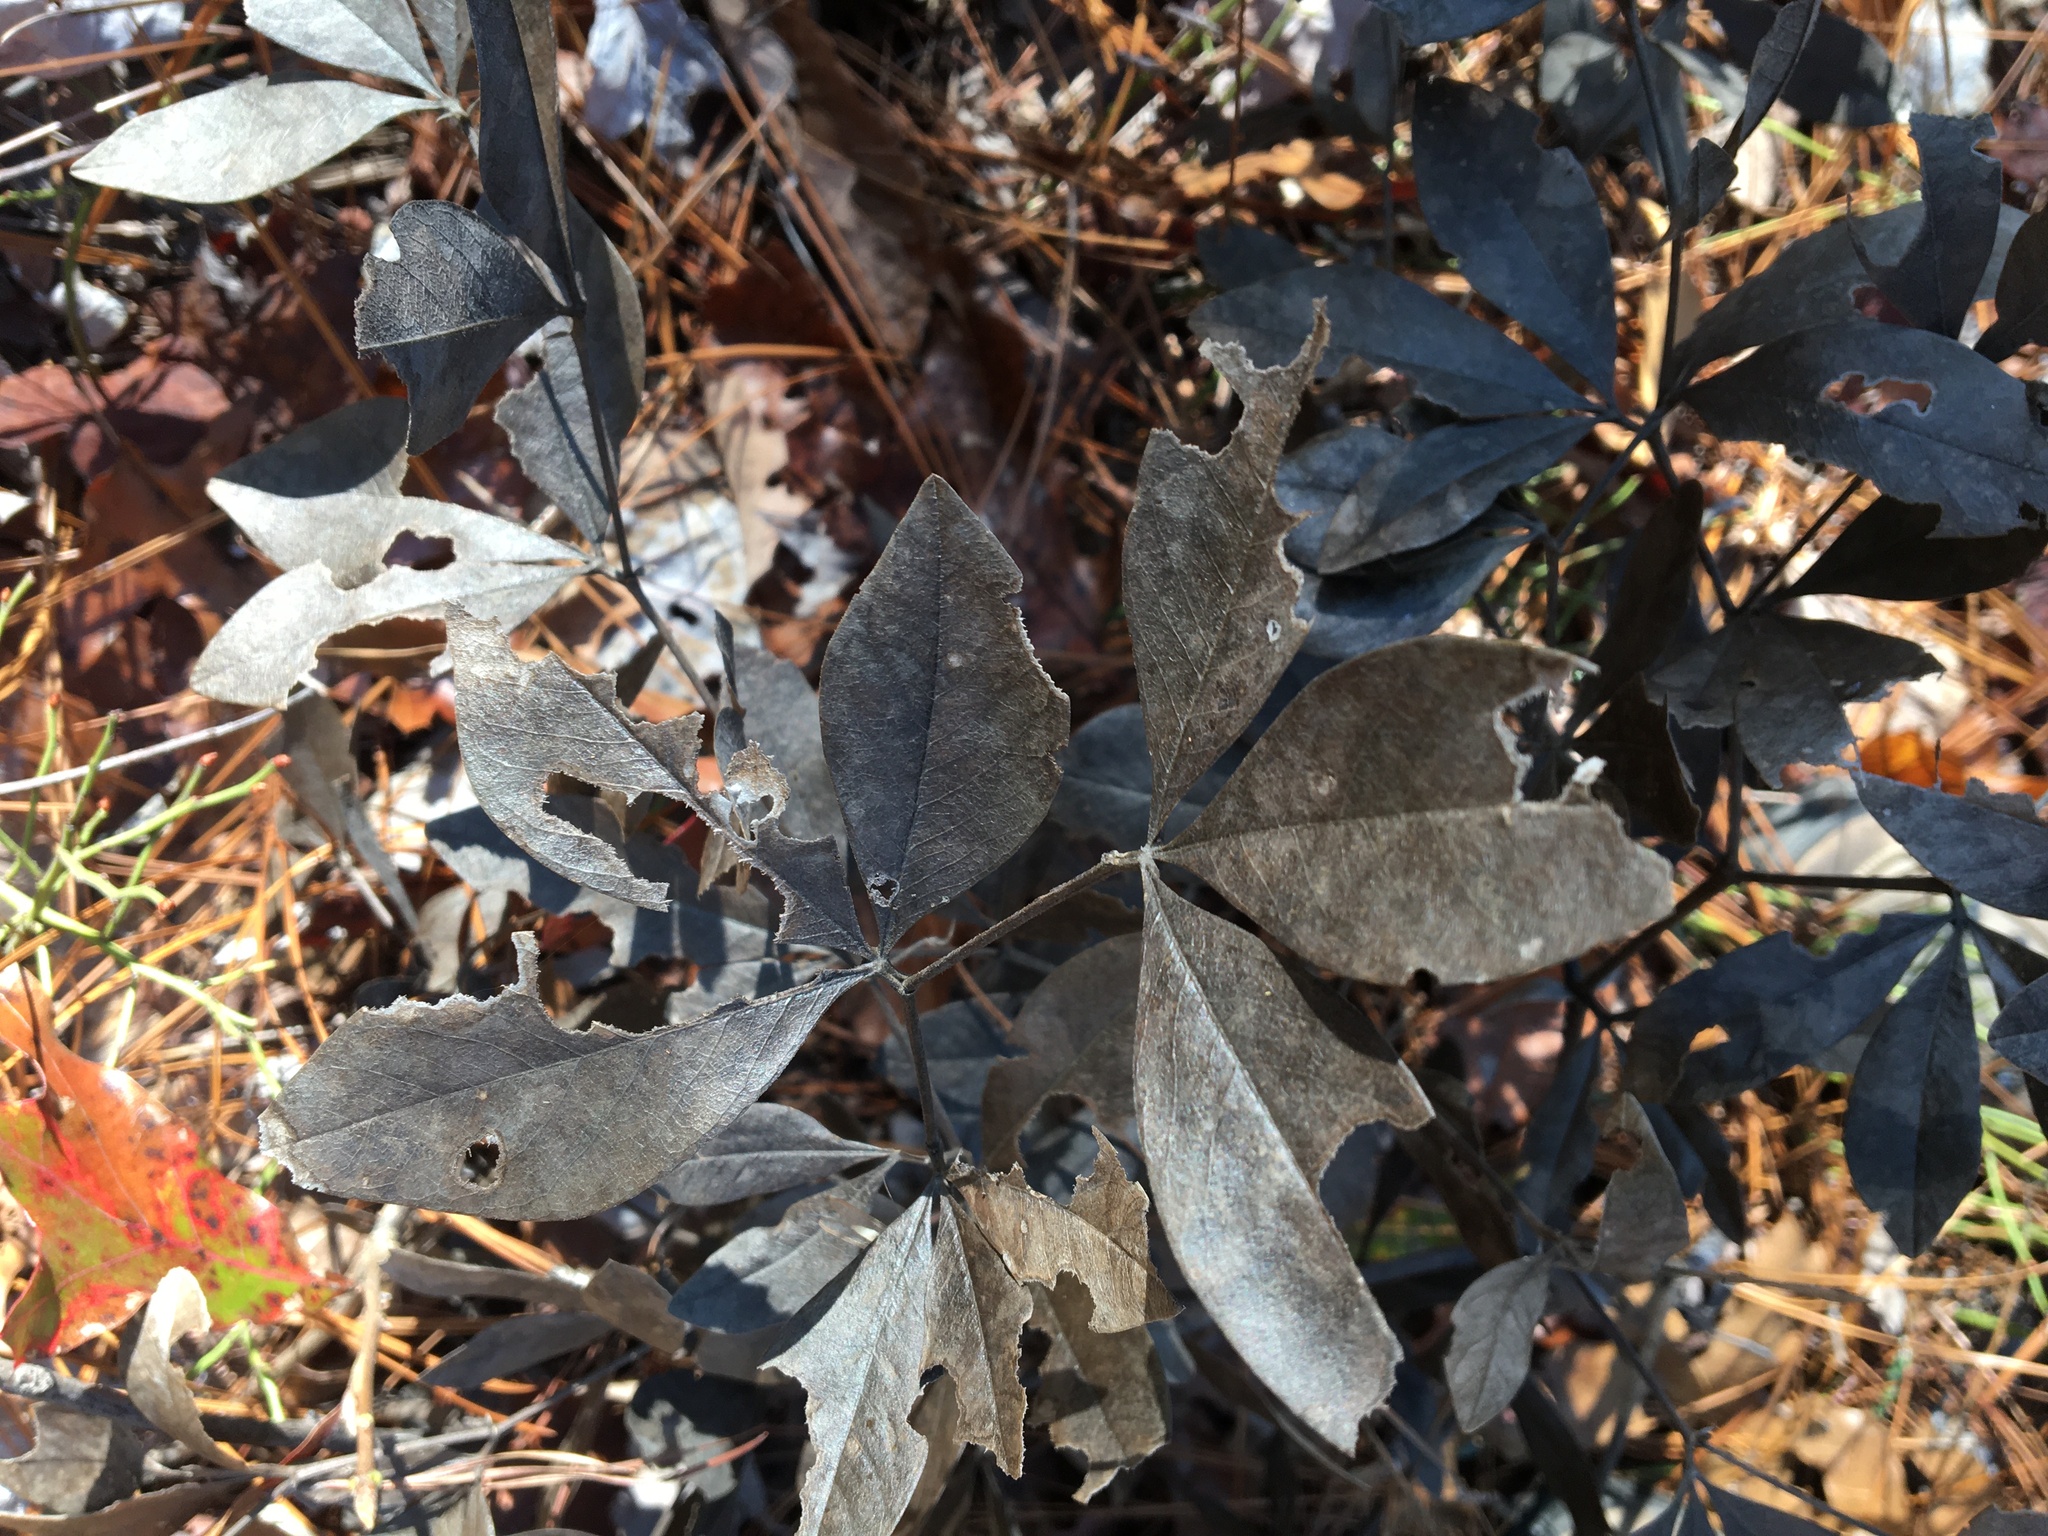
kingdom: Plantae
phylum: Tracheophyta
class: Magnoliopsida
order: Fabales
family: Fabaceae
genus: Baptisia
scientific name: Baptisia bracteata
